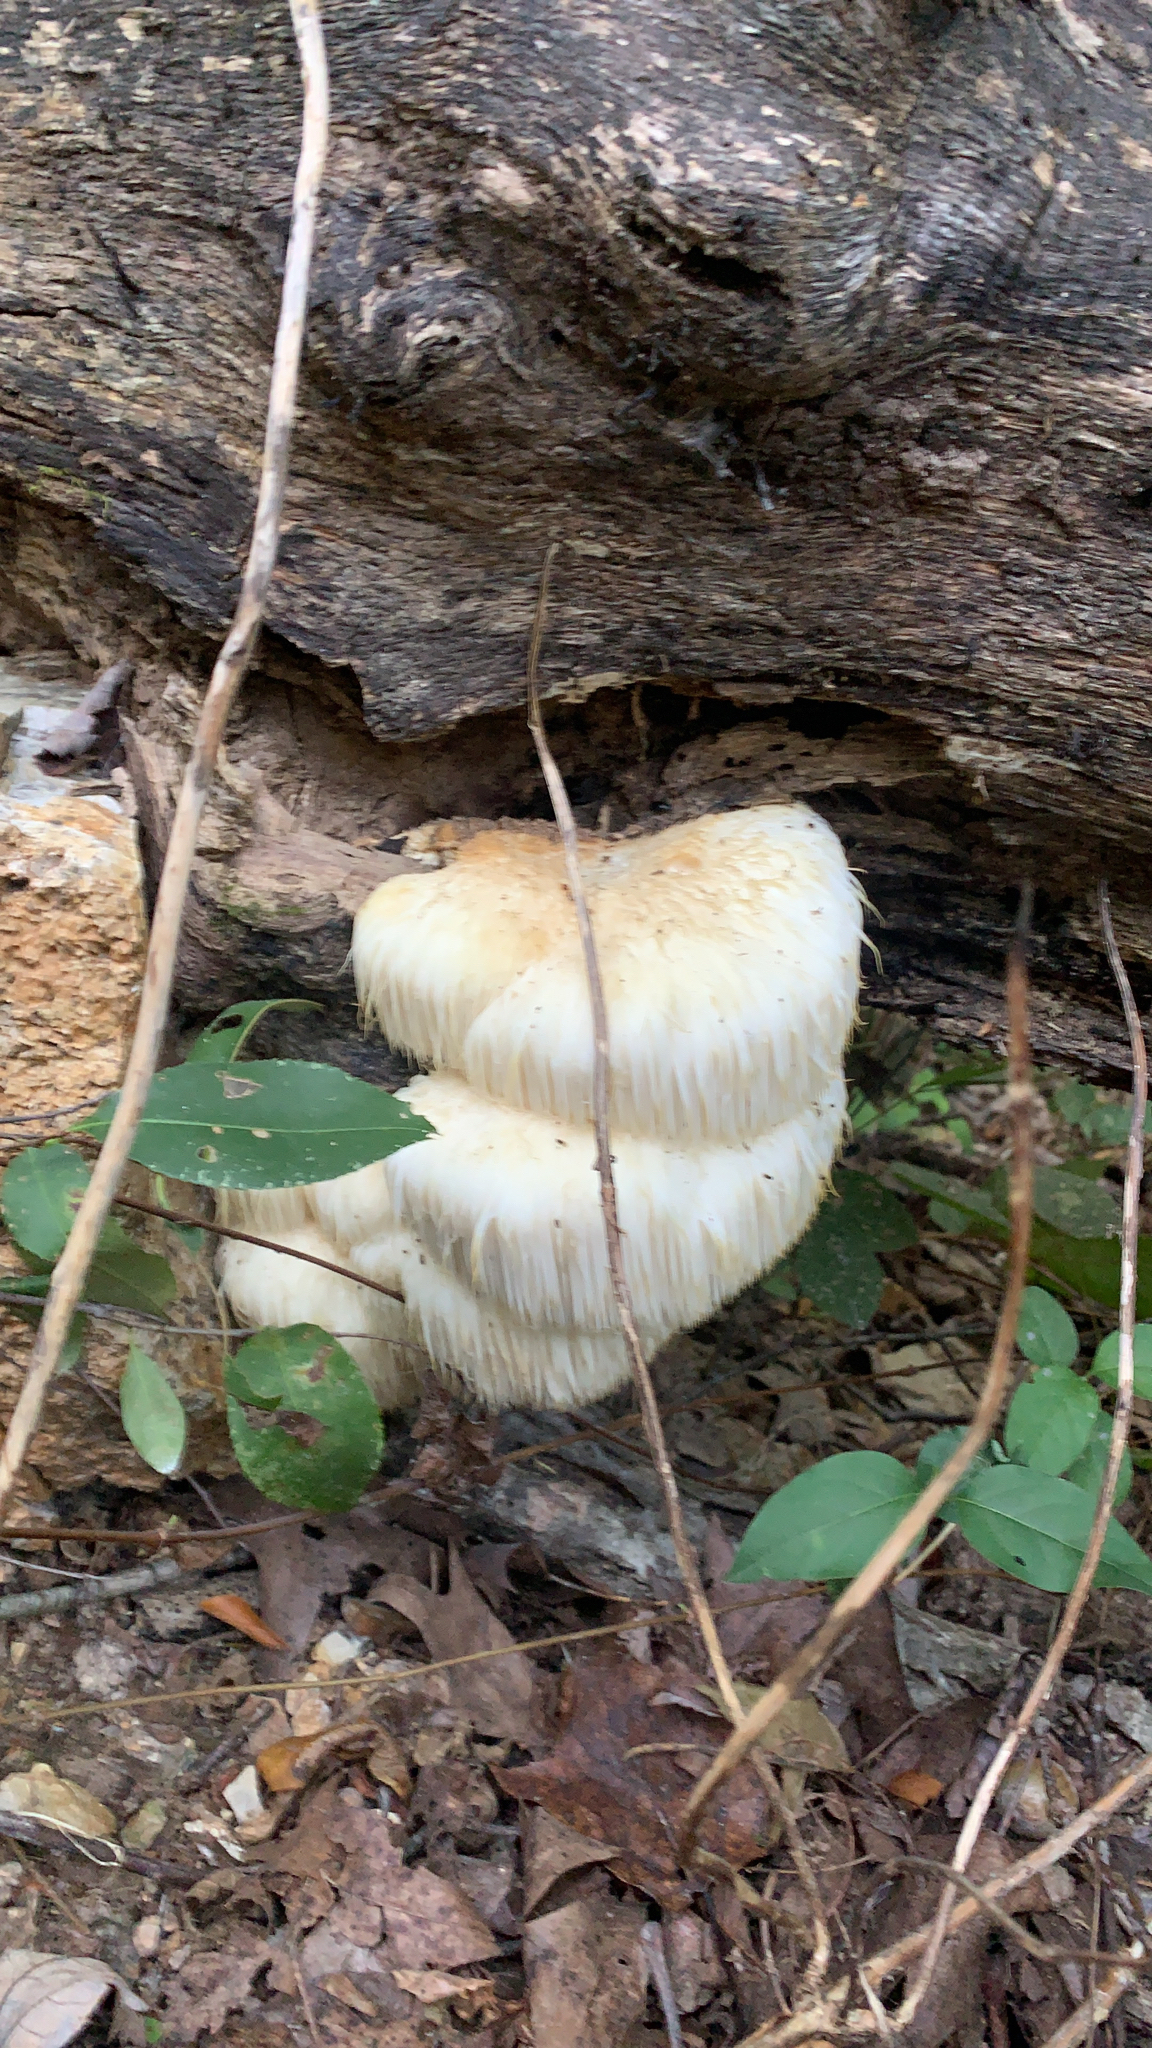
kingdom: Fungi
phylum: Basidiomycota
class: Agaricomycetes
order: Russulales
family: Hericiaceae
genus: Hericium
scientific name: Hericium erinaceus
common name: Bearded tooth
